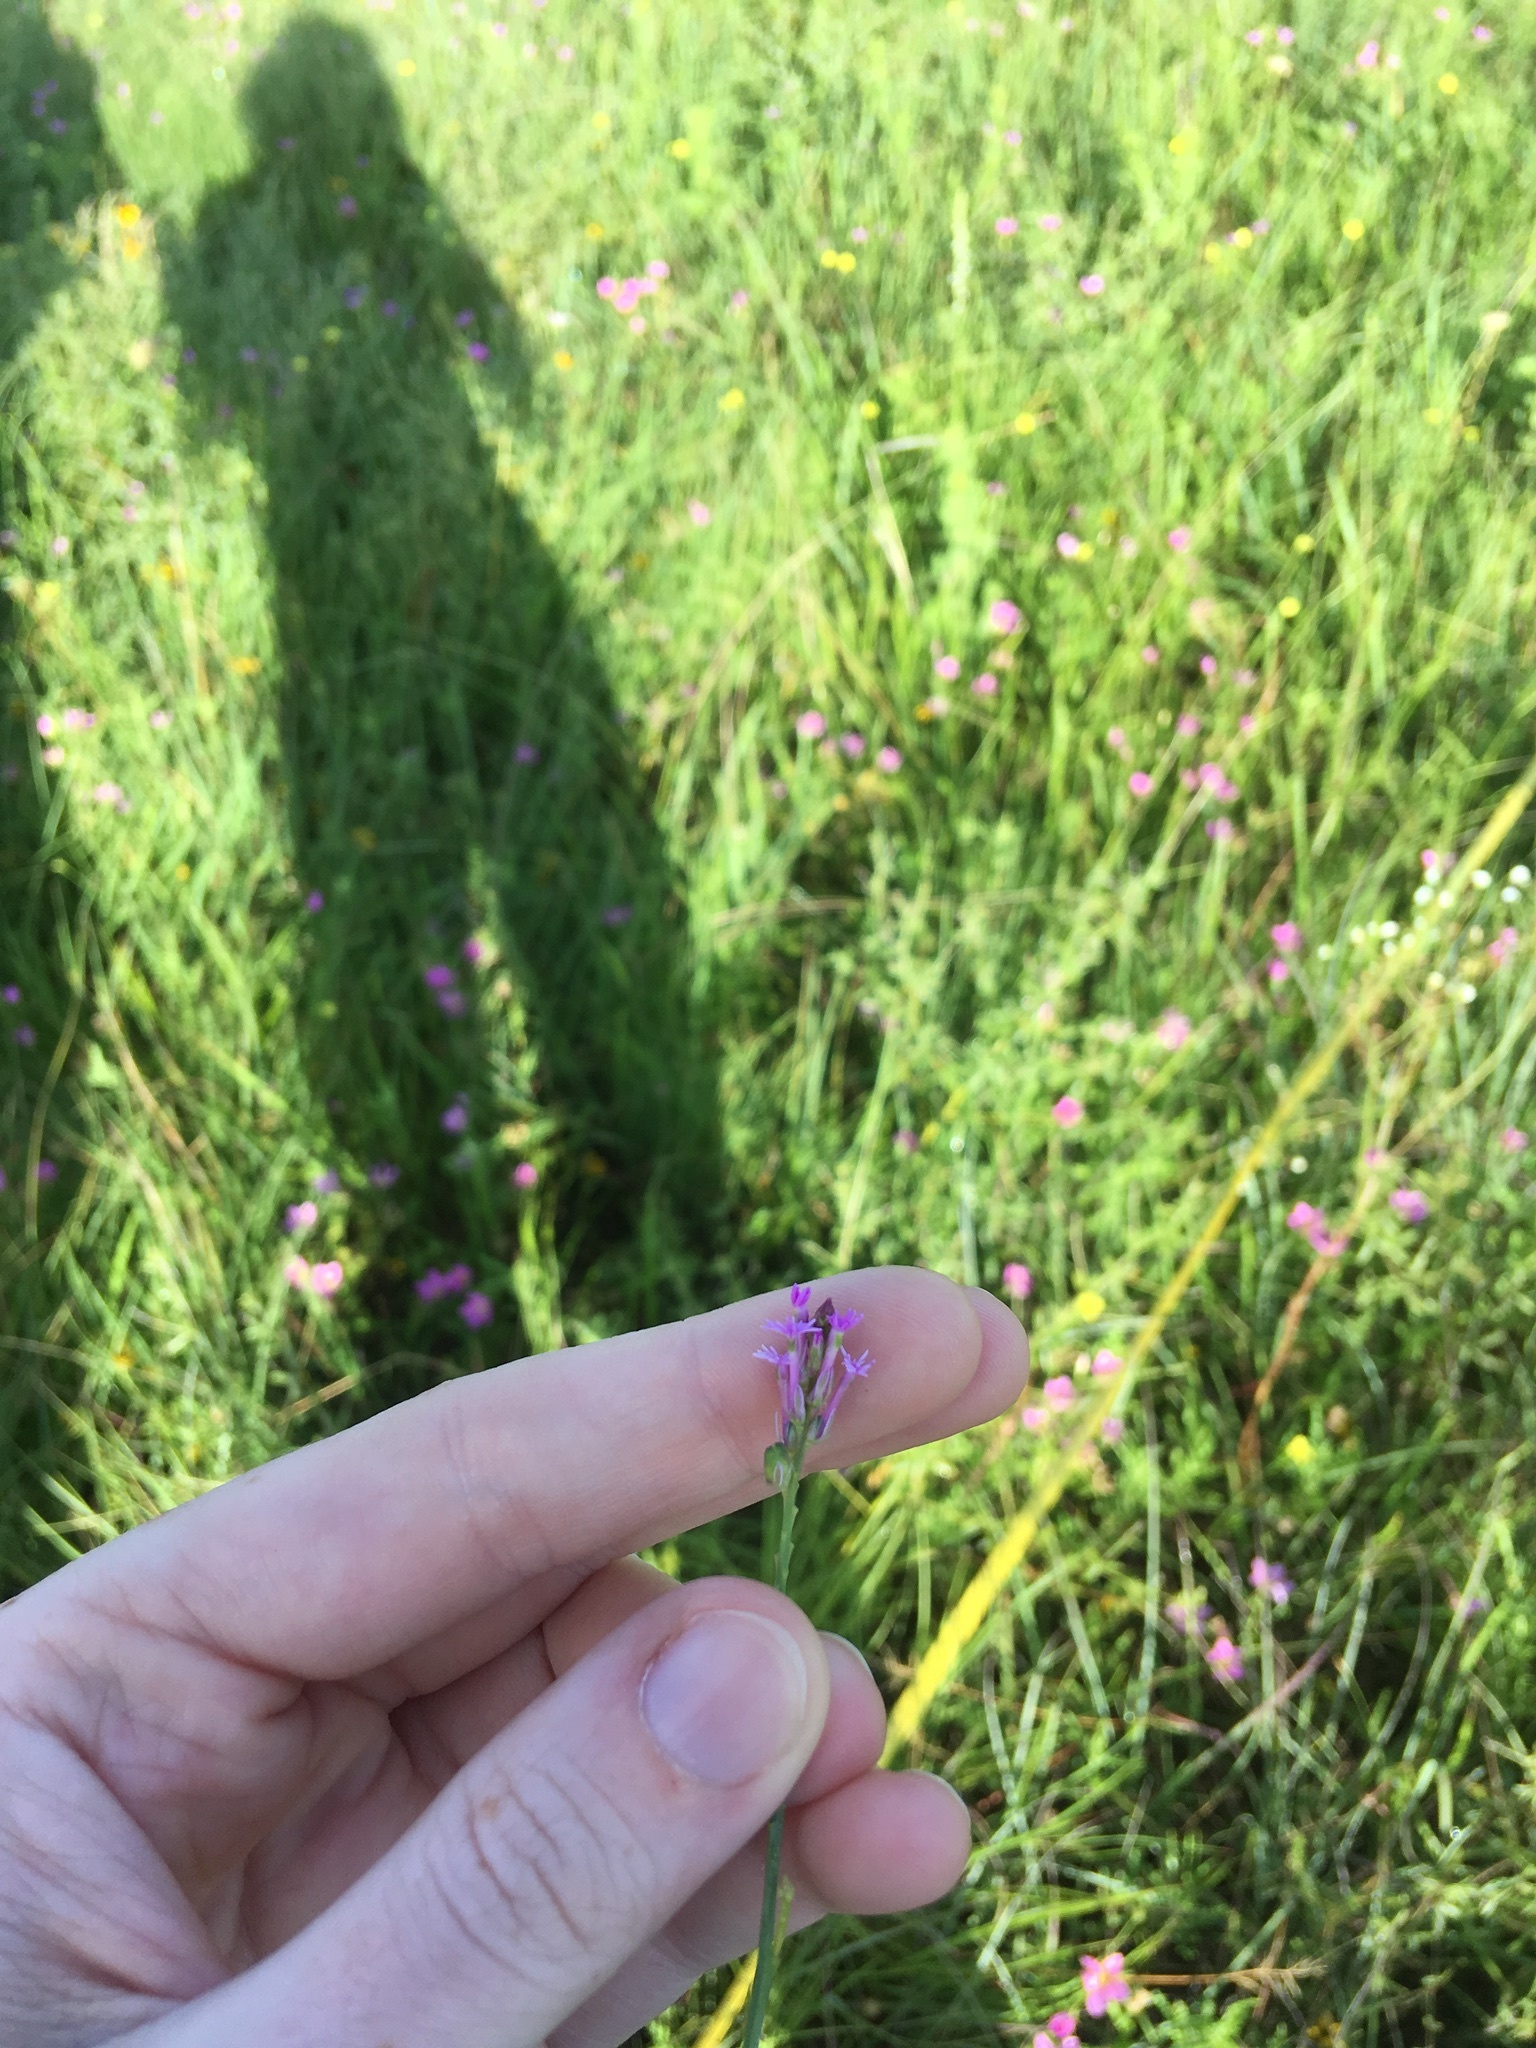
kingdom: Plantae
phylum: Tracheophyta
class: Magnoliopsida
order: Fabales
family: Polygalaceae
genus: Polygala
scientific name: Polygala incarnata
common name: Pink milkwort
